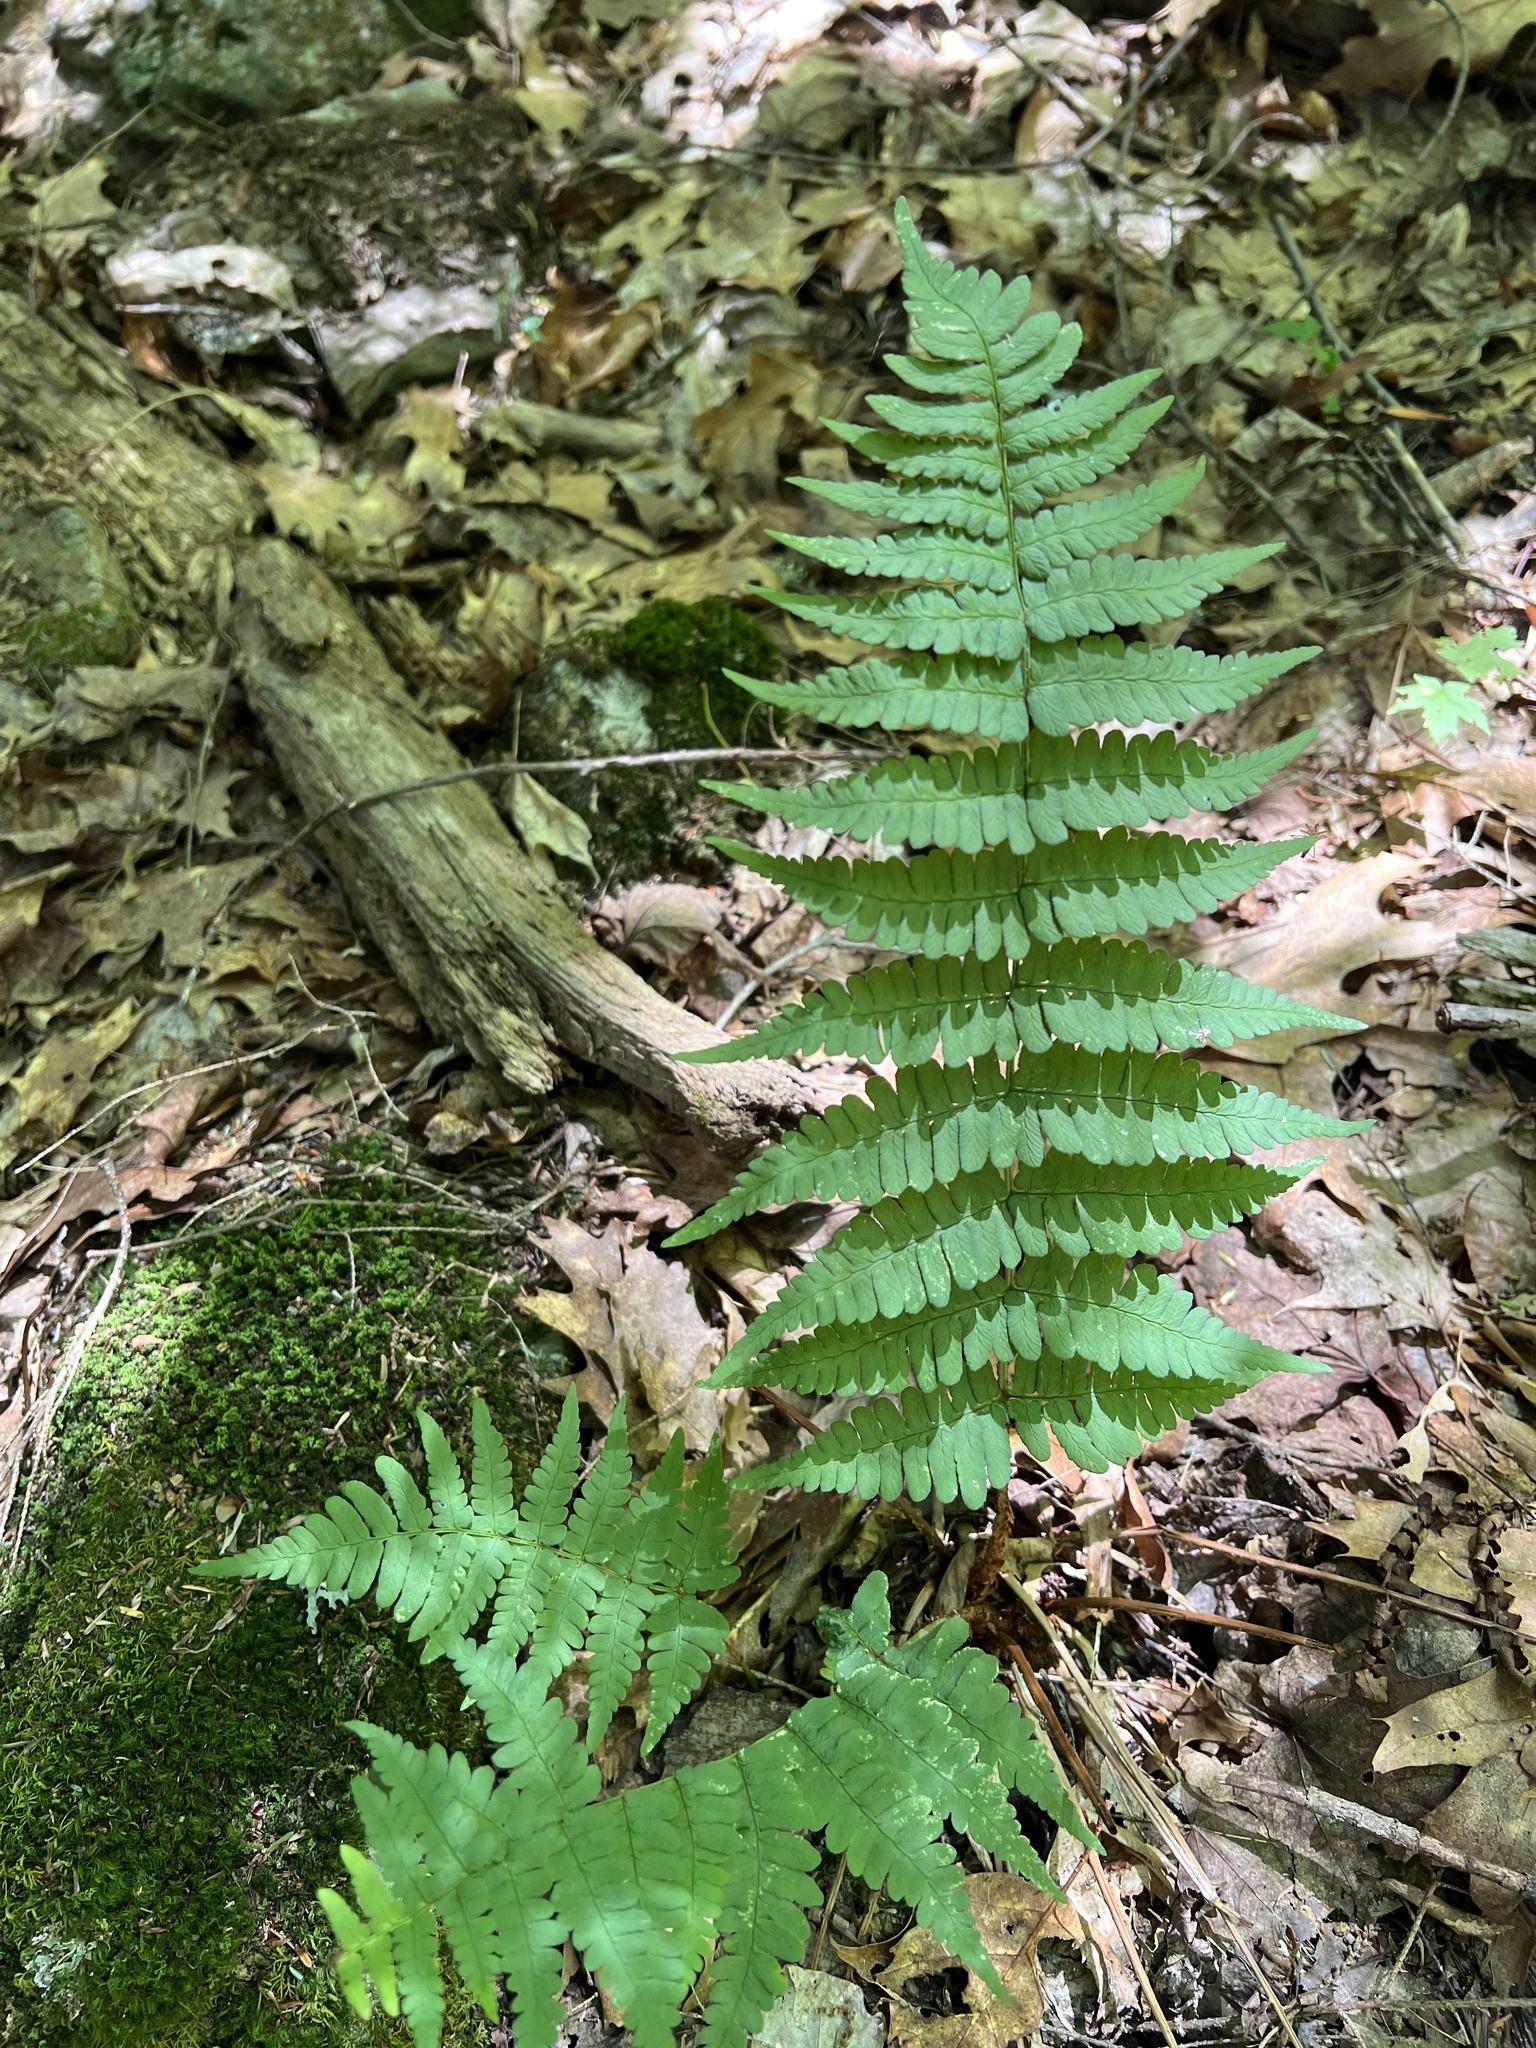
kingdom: Plantae
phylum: Tracheophyta
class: Polypodiopsida
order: Polypodiales
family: Dryopteridaceae
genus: Dryopteris
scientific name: Dryopteris marginalis
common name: Marginal wood fern
